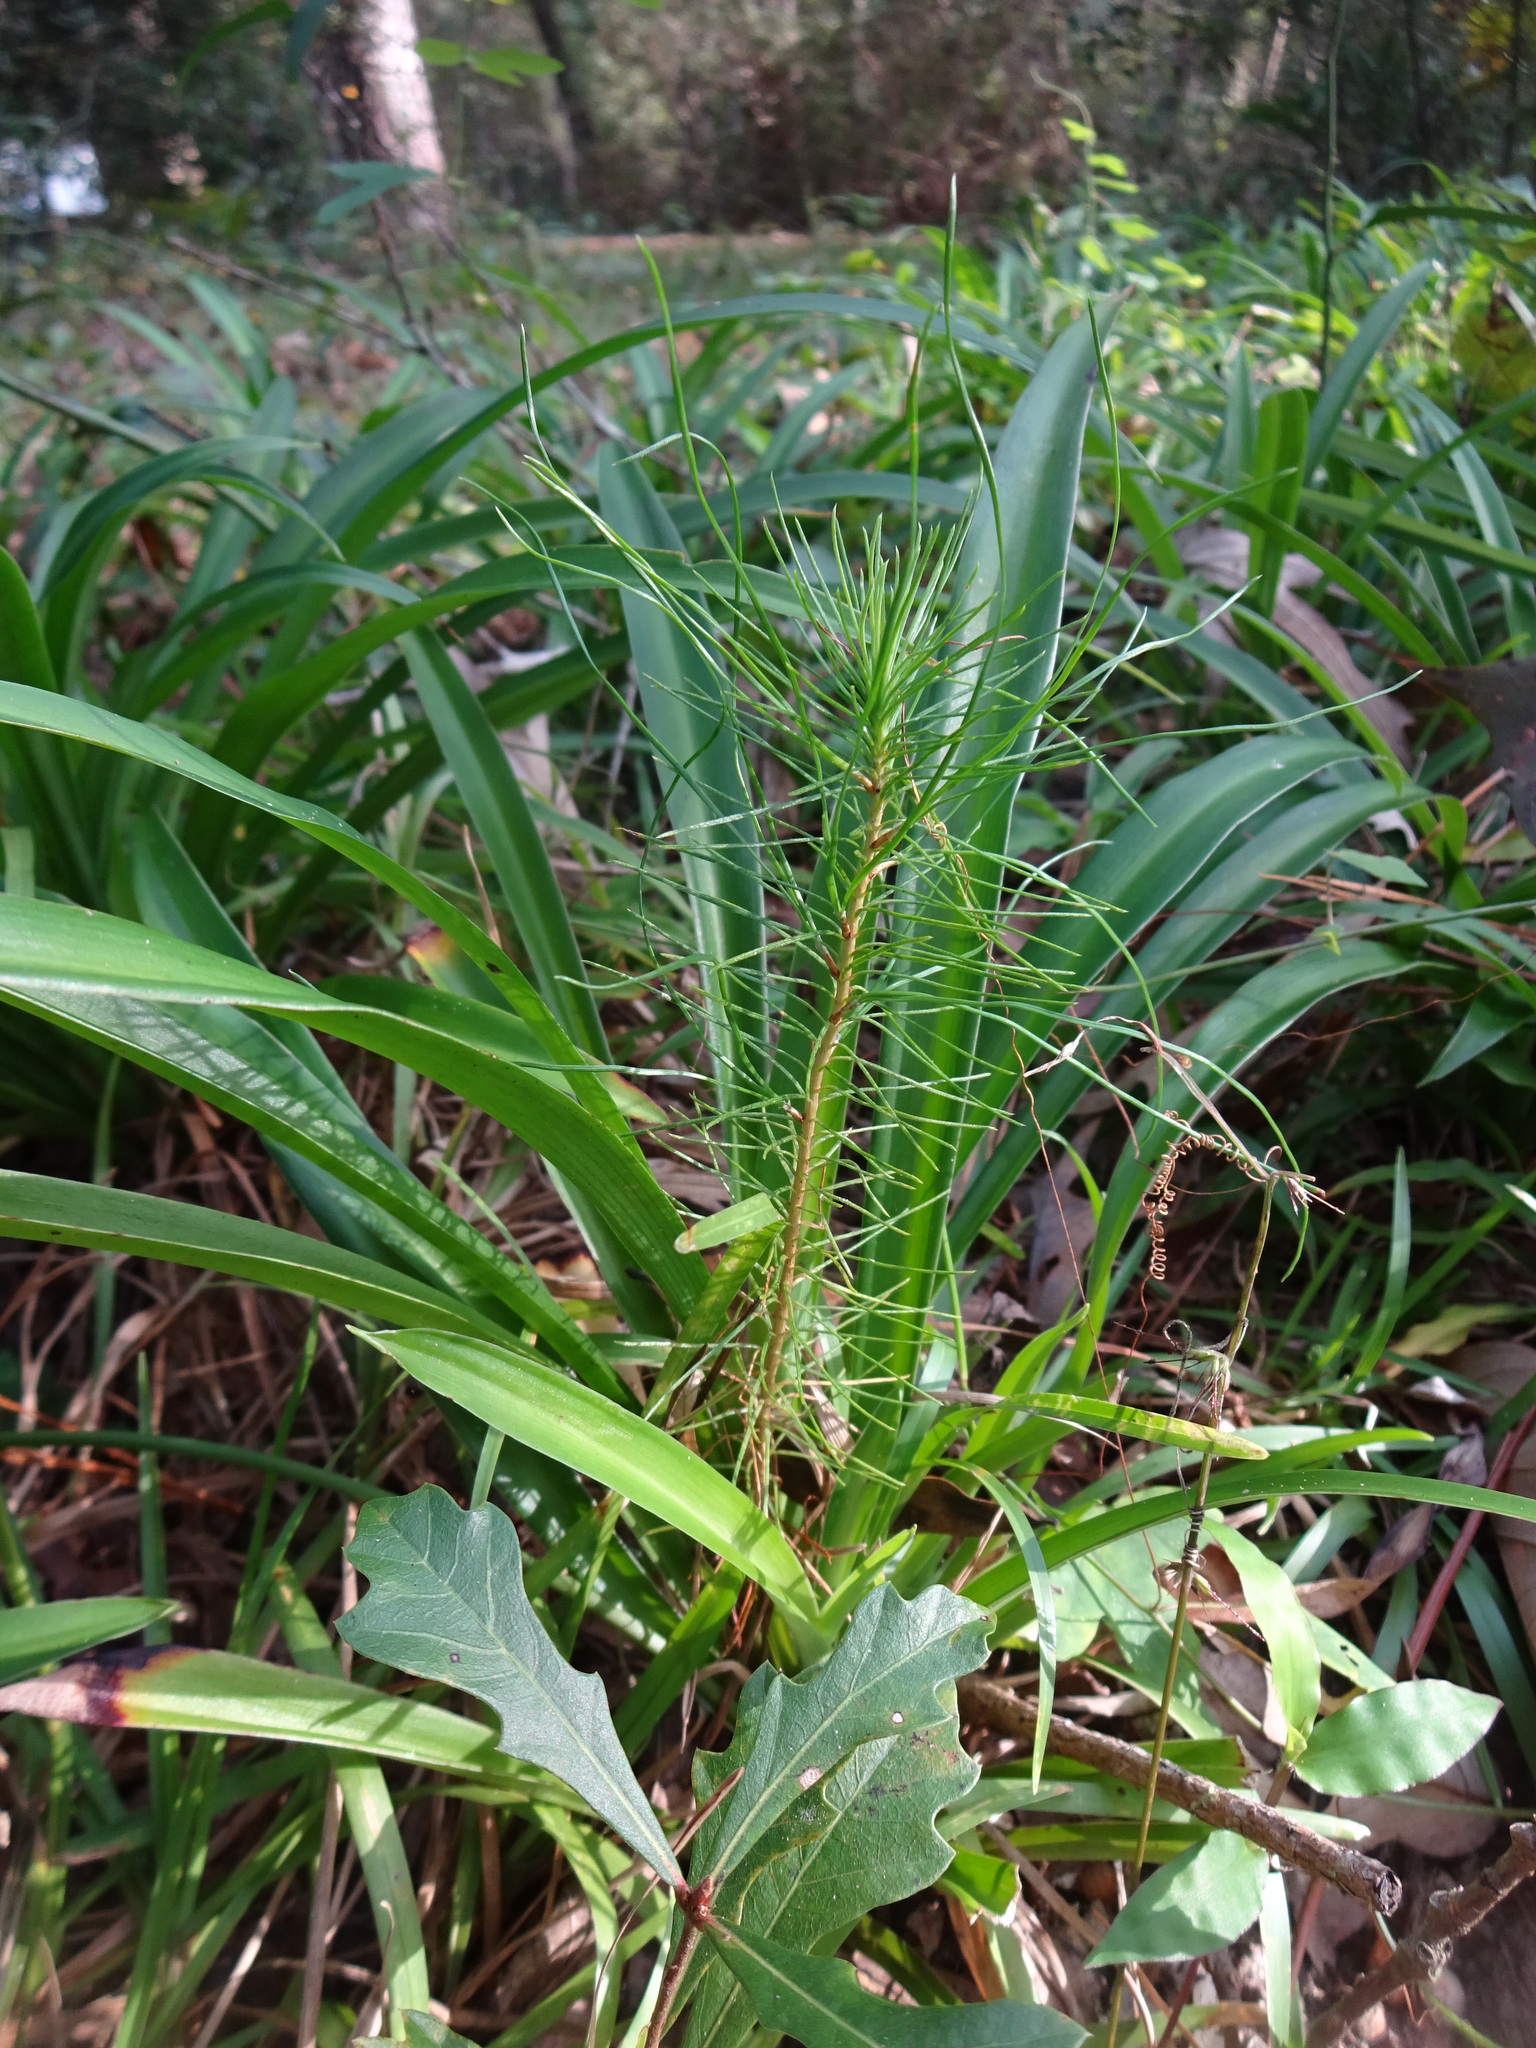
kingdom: Plantae
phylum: Tracheophyta
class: Pinopsida
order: Pinales
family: Pinaceae
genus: Pinus
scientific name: Pinus elliottii
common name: Slash pine
